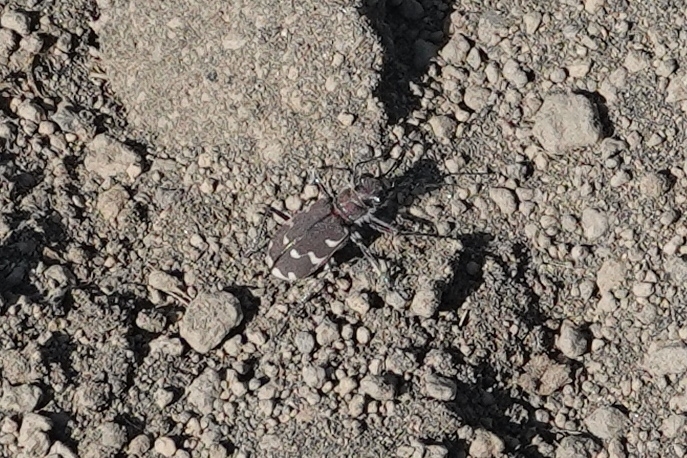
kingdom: Animalia
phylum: Arthropoda
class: Insecta
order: Coleoptera
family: Carabidae
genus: Cicindela
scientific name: Cicindela restricta
